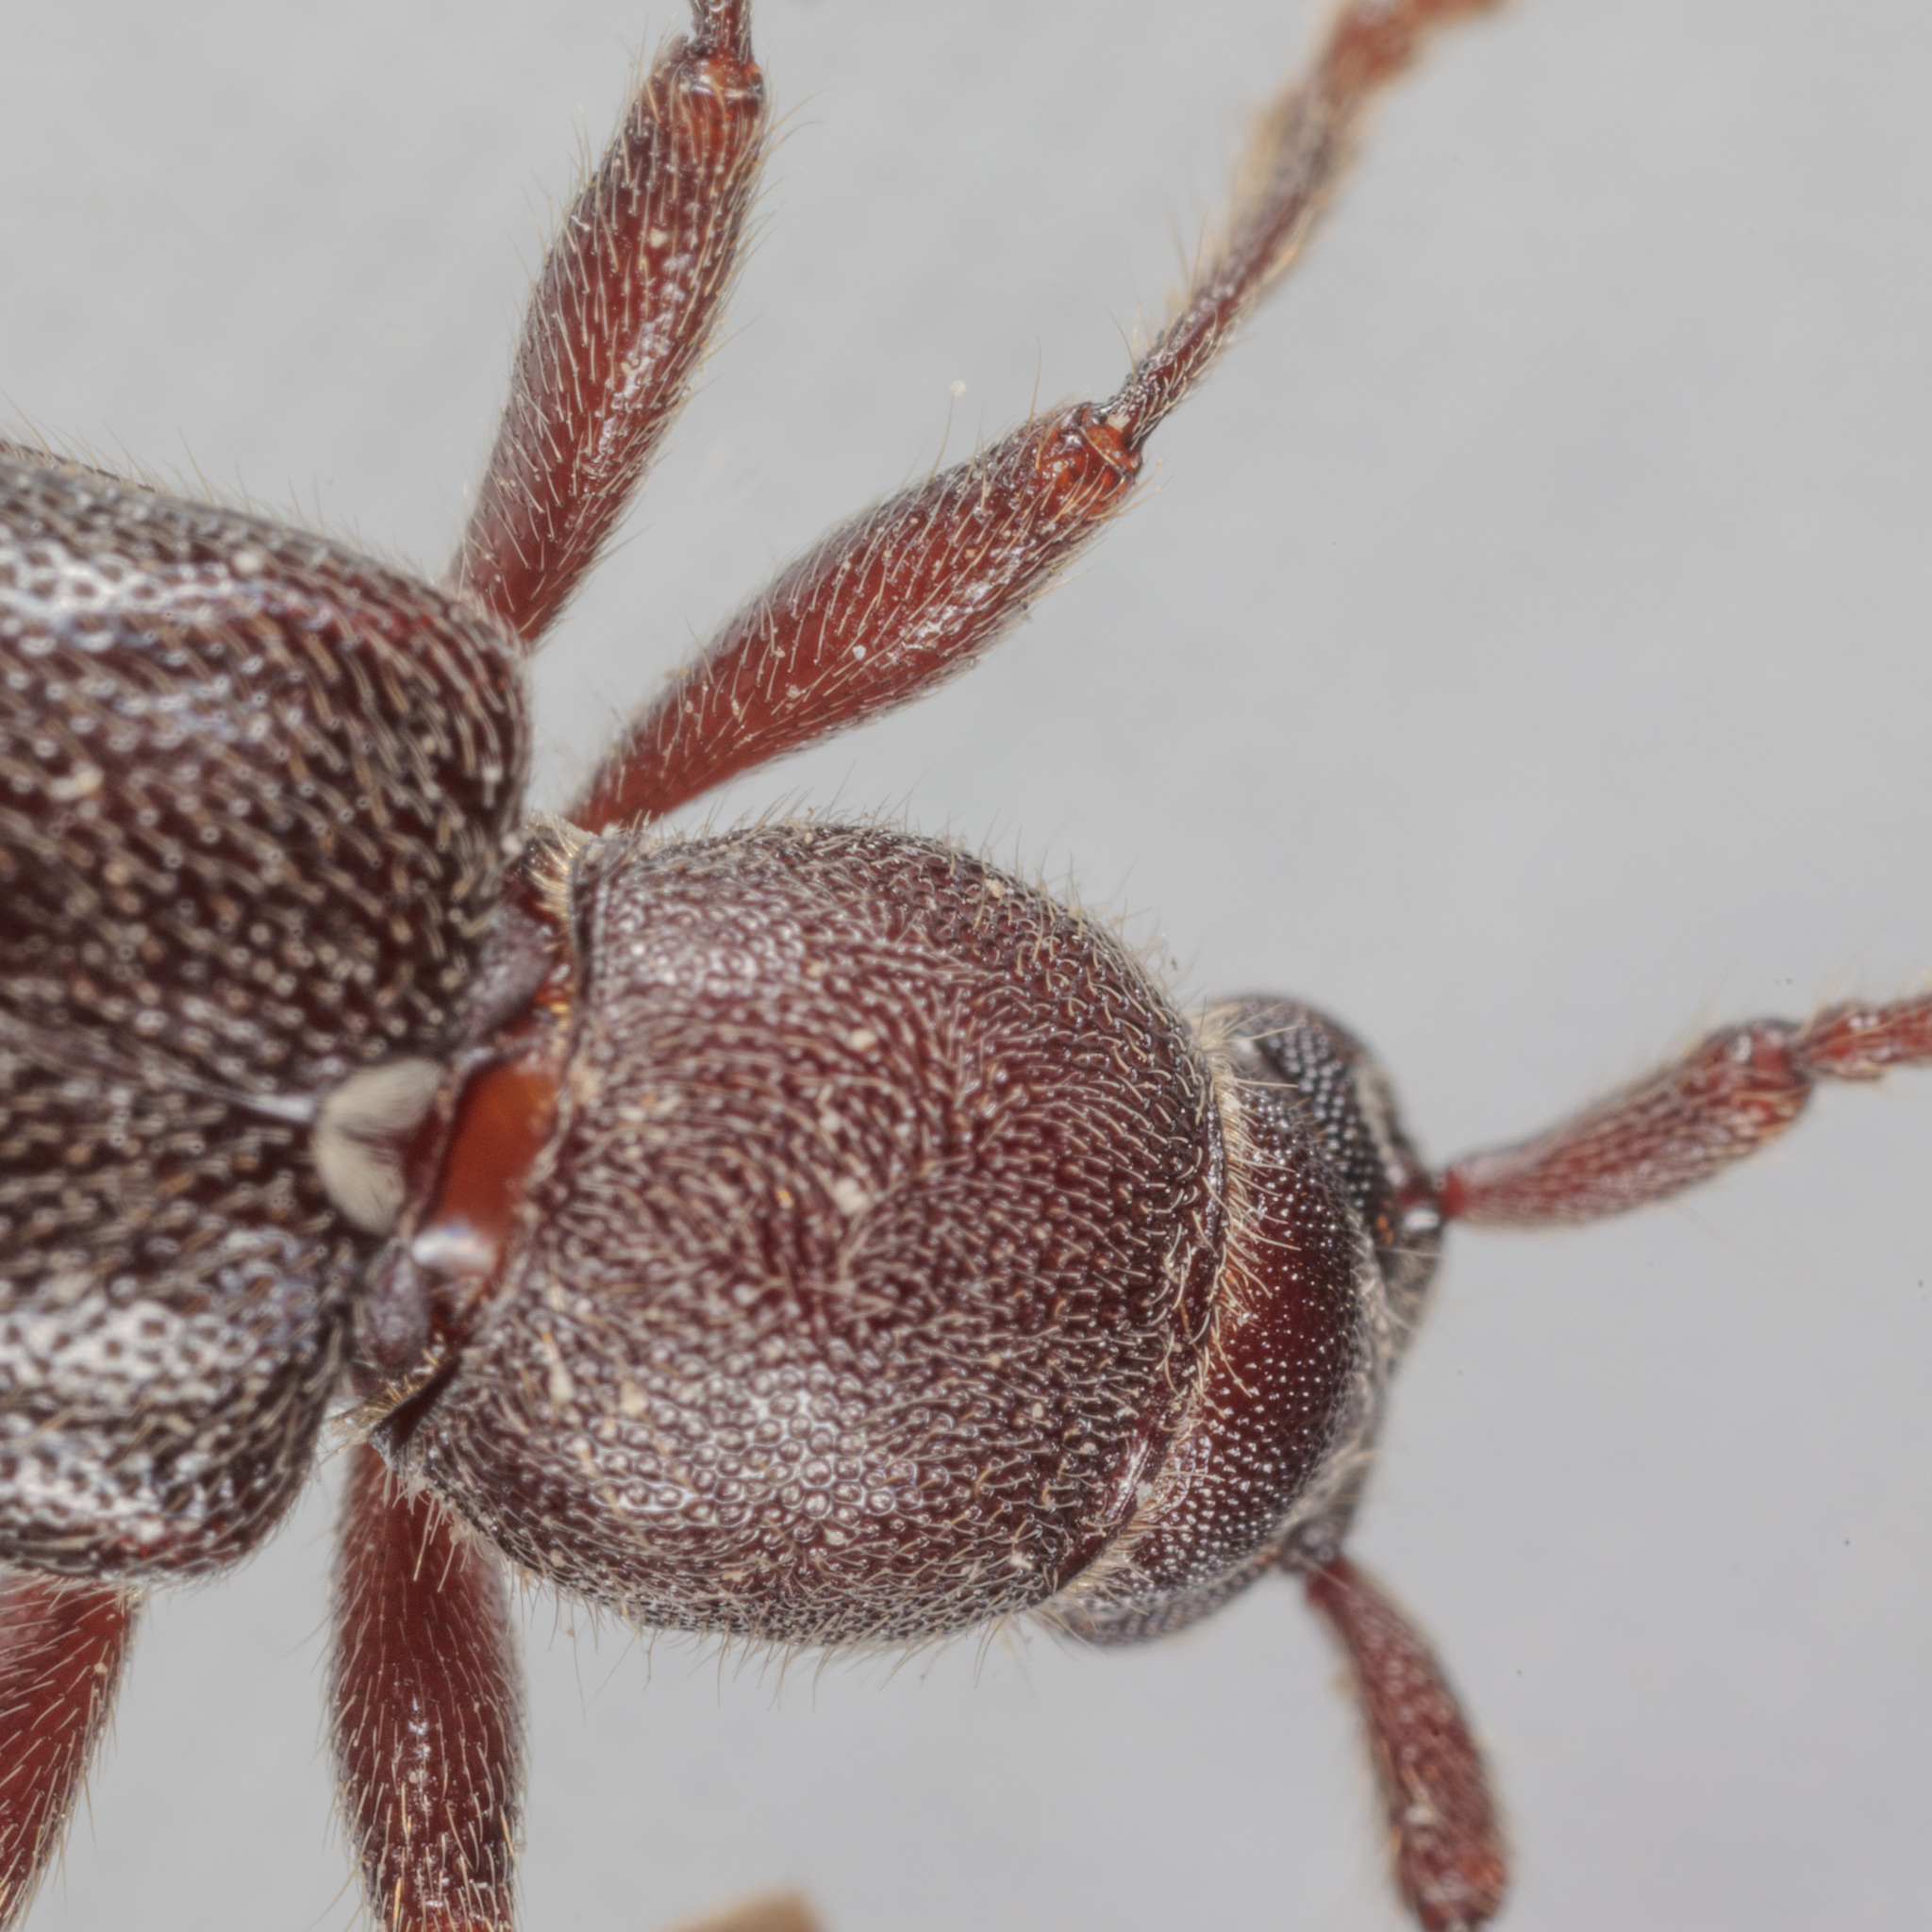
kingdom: Animalia
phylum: Arthropoda
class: Insecta
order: Coleoptera
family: Cerambycidae
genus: Anelaphus
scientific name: Anelaphus moestus
